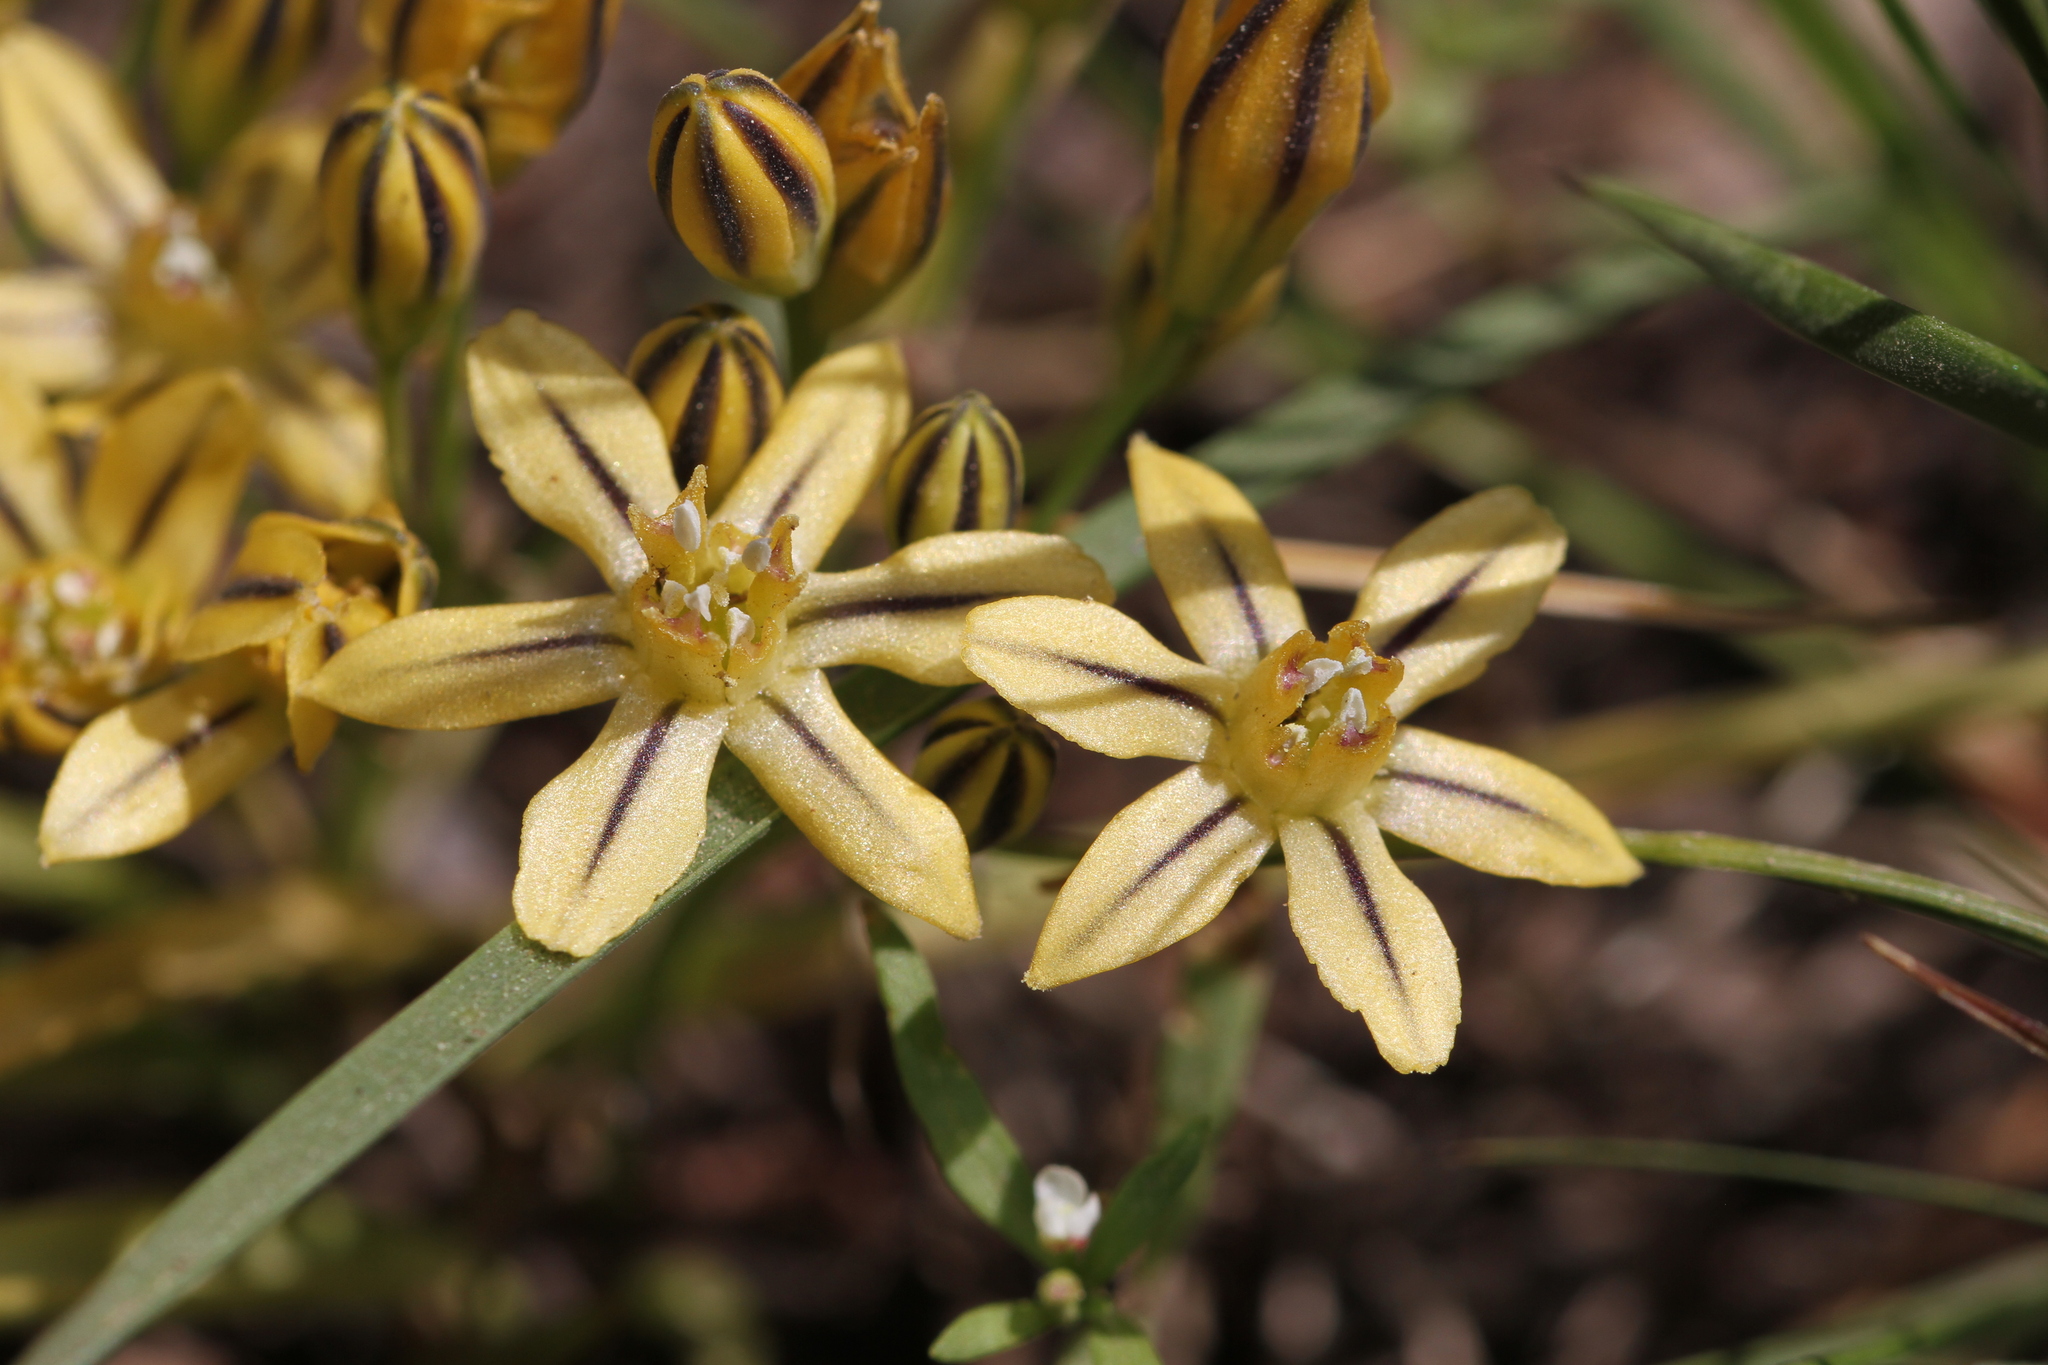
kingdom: Plantae
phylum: Tracheophyta
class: Liliopsida
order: Asparagales
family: Asparagaceae
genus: Triteleia
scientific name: Triteleia ixioides
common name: Yellow-brodiaea
